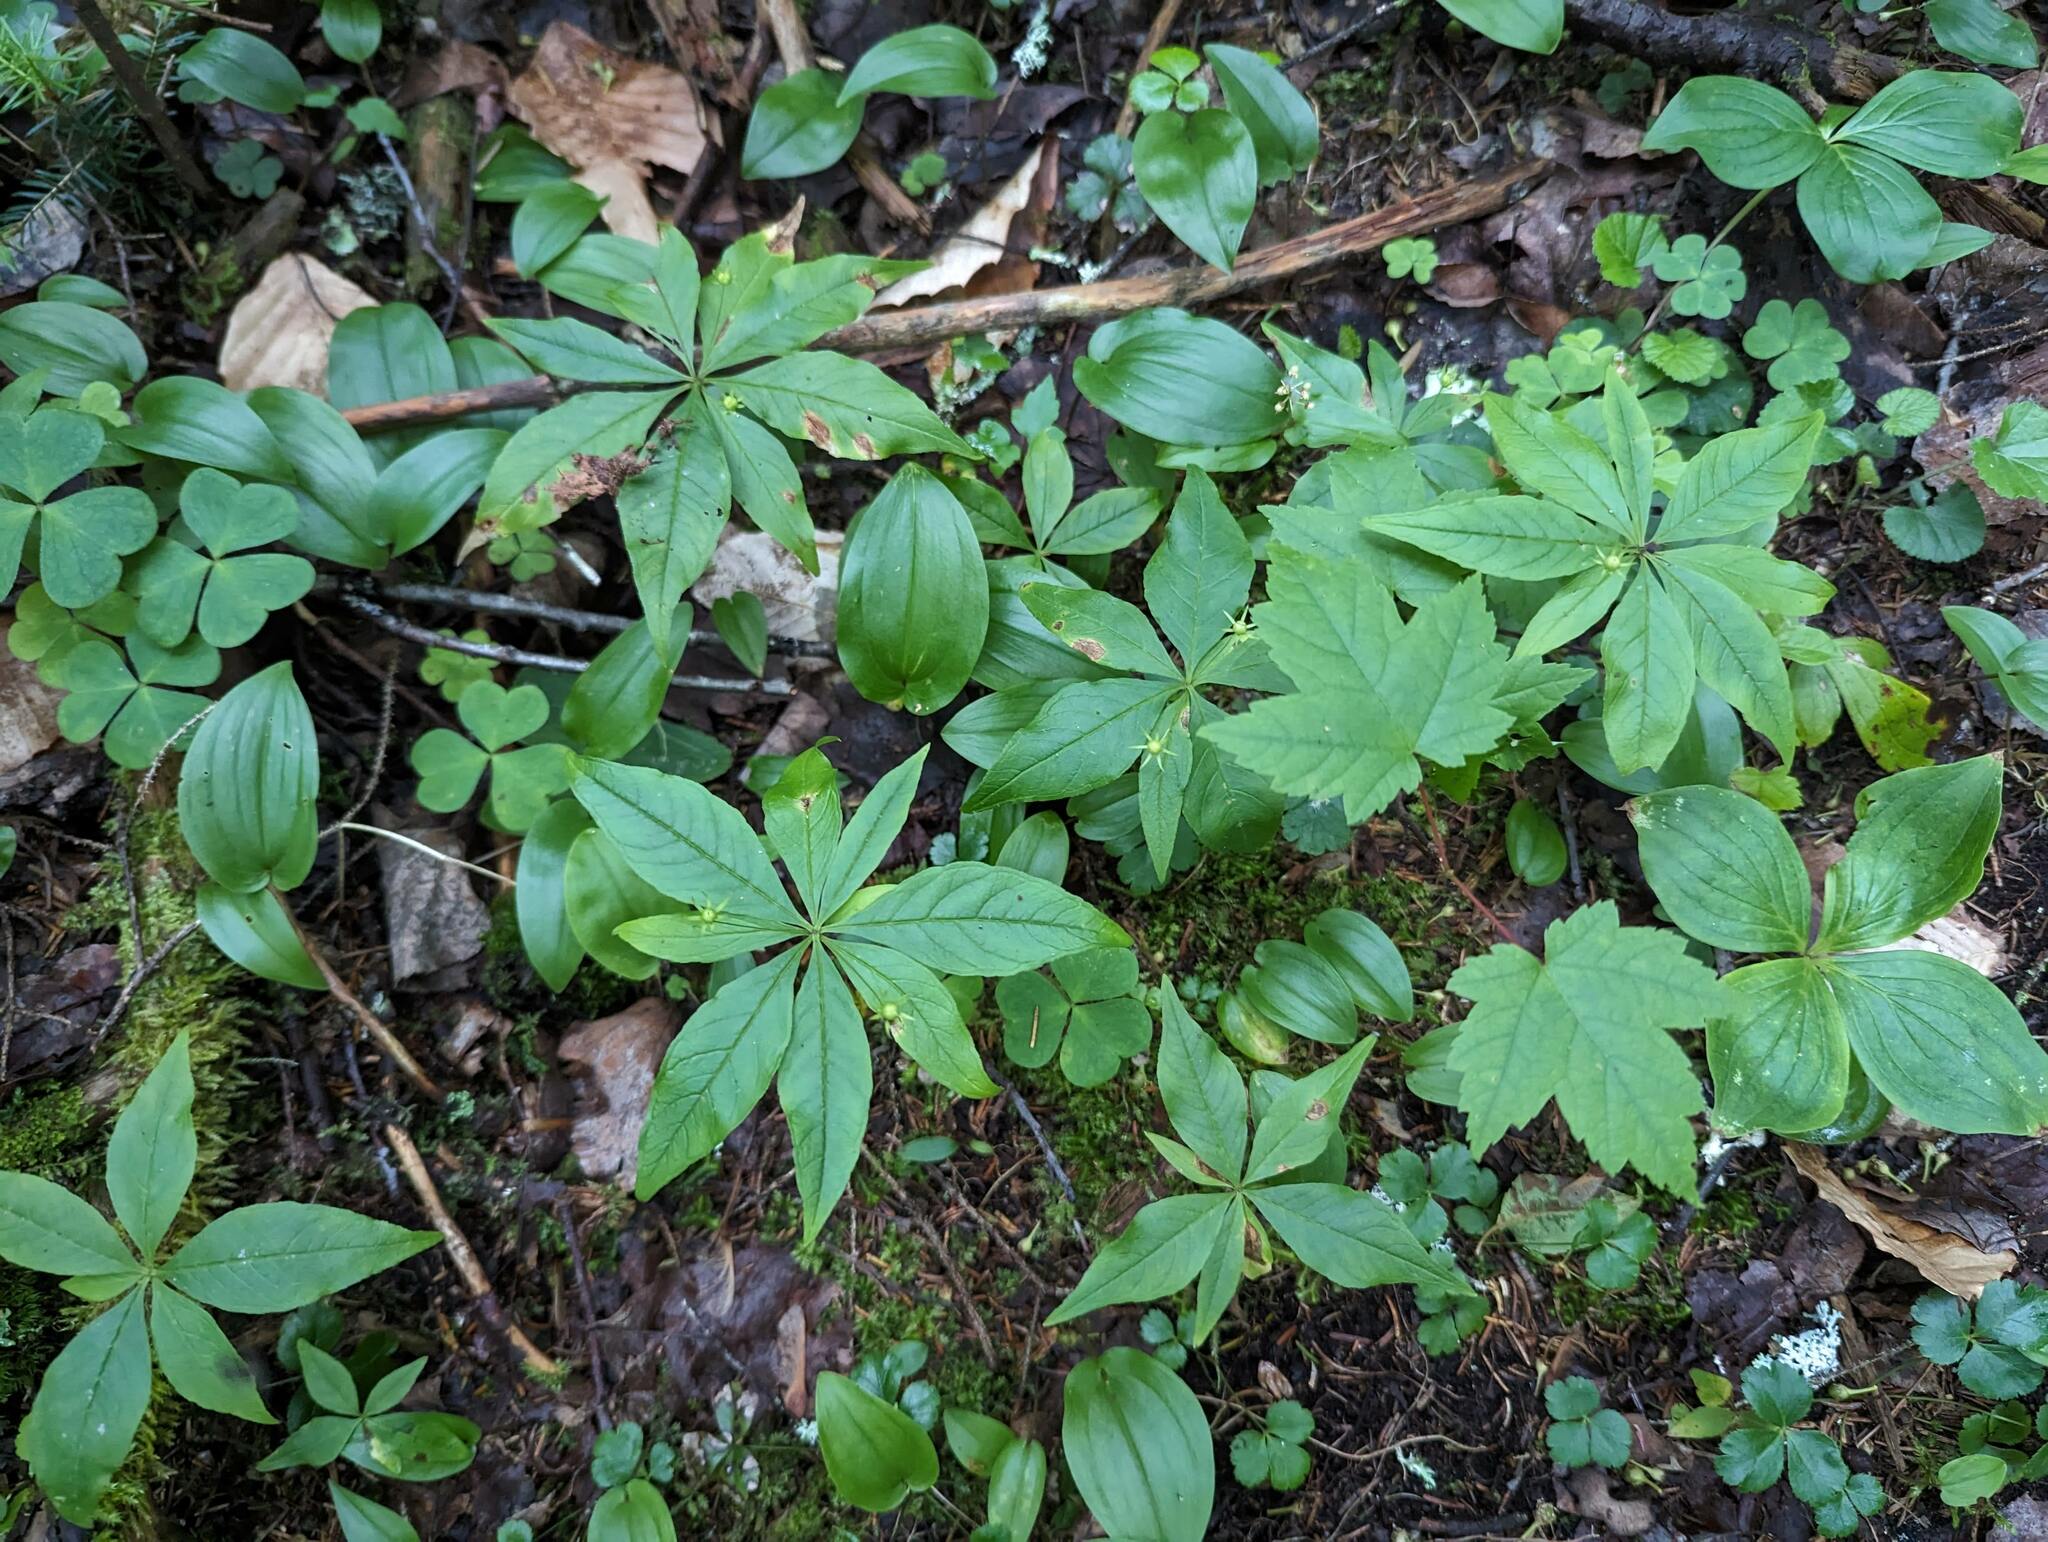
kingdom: Plantae
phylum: Tracheophyta
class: Liliopsida
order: Asparagales
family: Asparagaceae
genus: Maianthemum
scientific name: Maianthemum canadense
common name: False lily-of-the-valley
